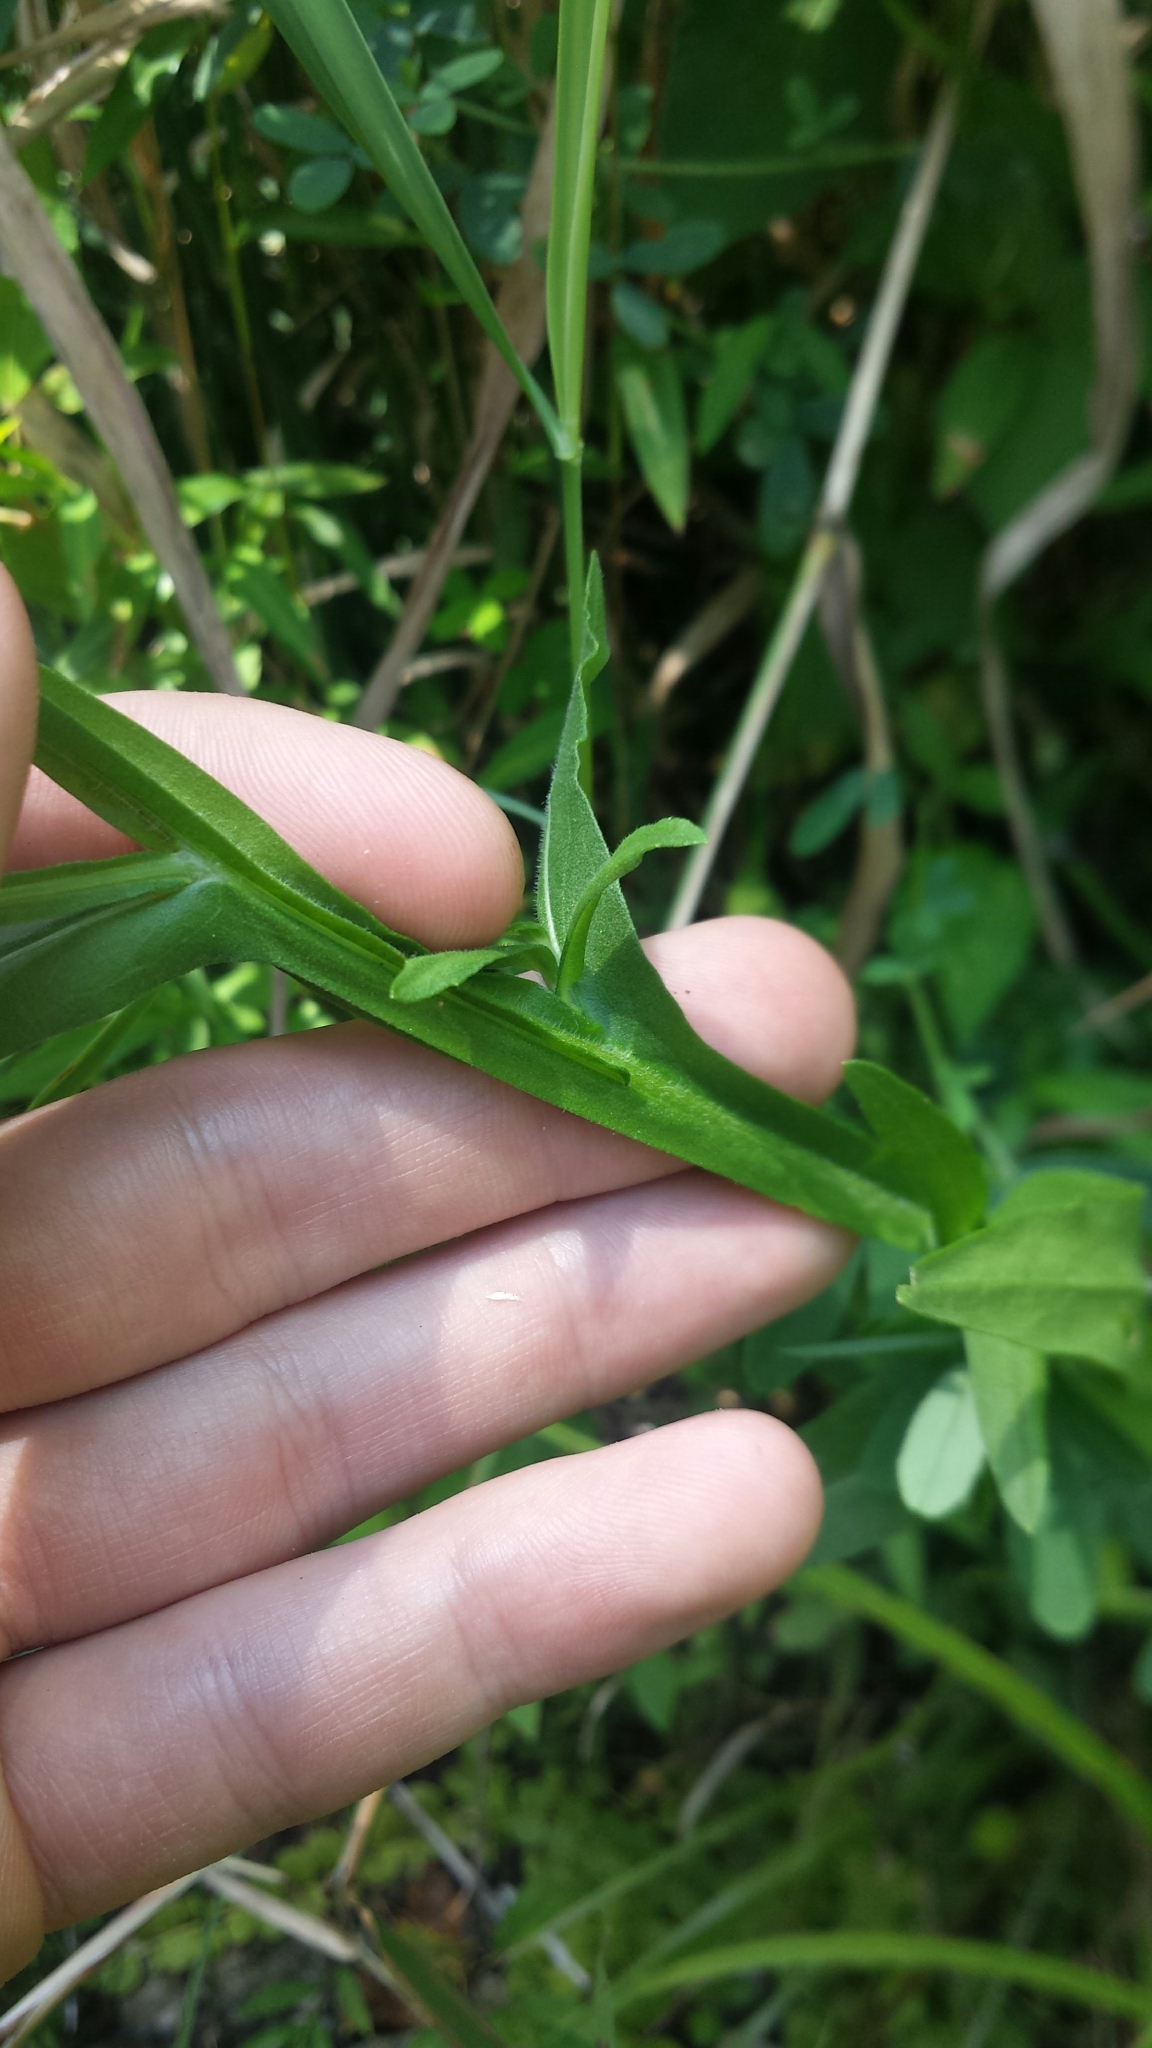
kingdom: Plantae
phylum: Tracheophyta
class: Magnoliopsida
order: Asterales
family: Asteraceae
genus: Helenium
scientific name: Helenium flexuosum
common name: Naked-flowered sneezeweed
